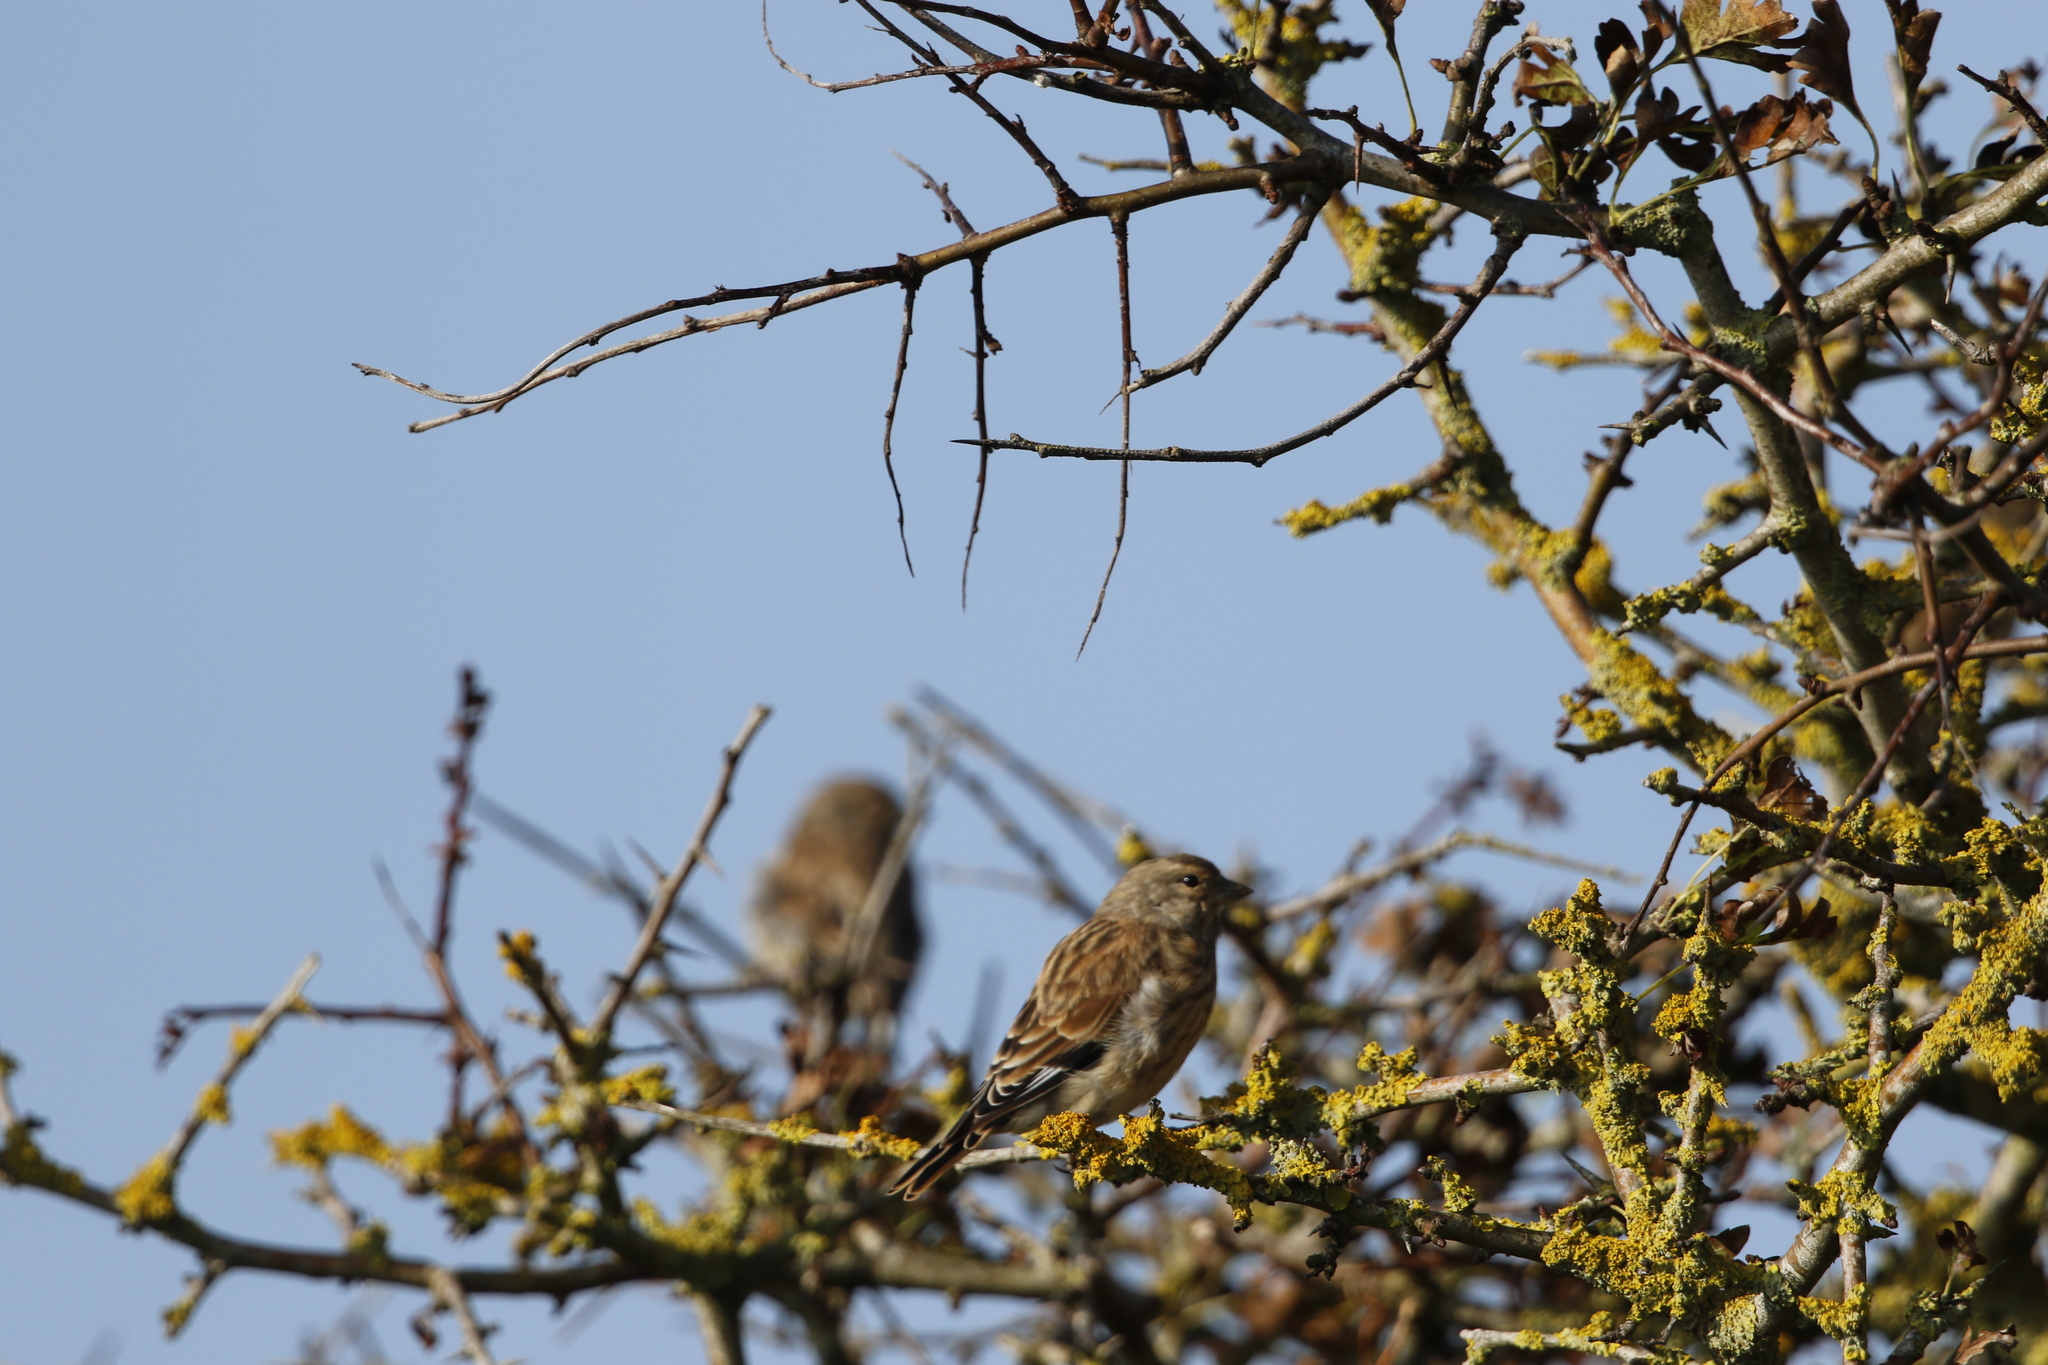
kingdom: Animalia
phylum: Chordata
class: Aves
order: Passeriformes
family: Fringillidae
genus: Linaria
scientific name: Linaria cannabina
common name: Common linnet
